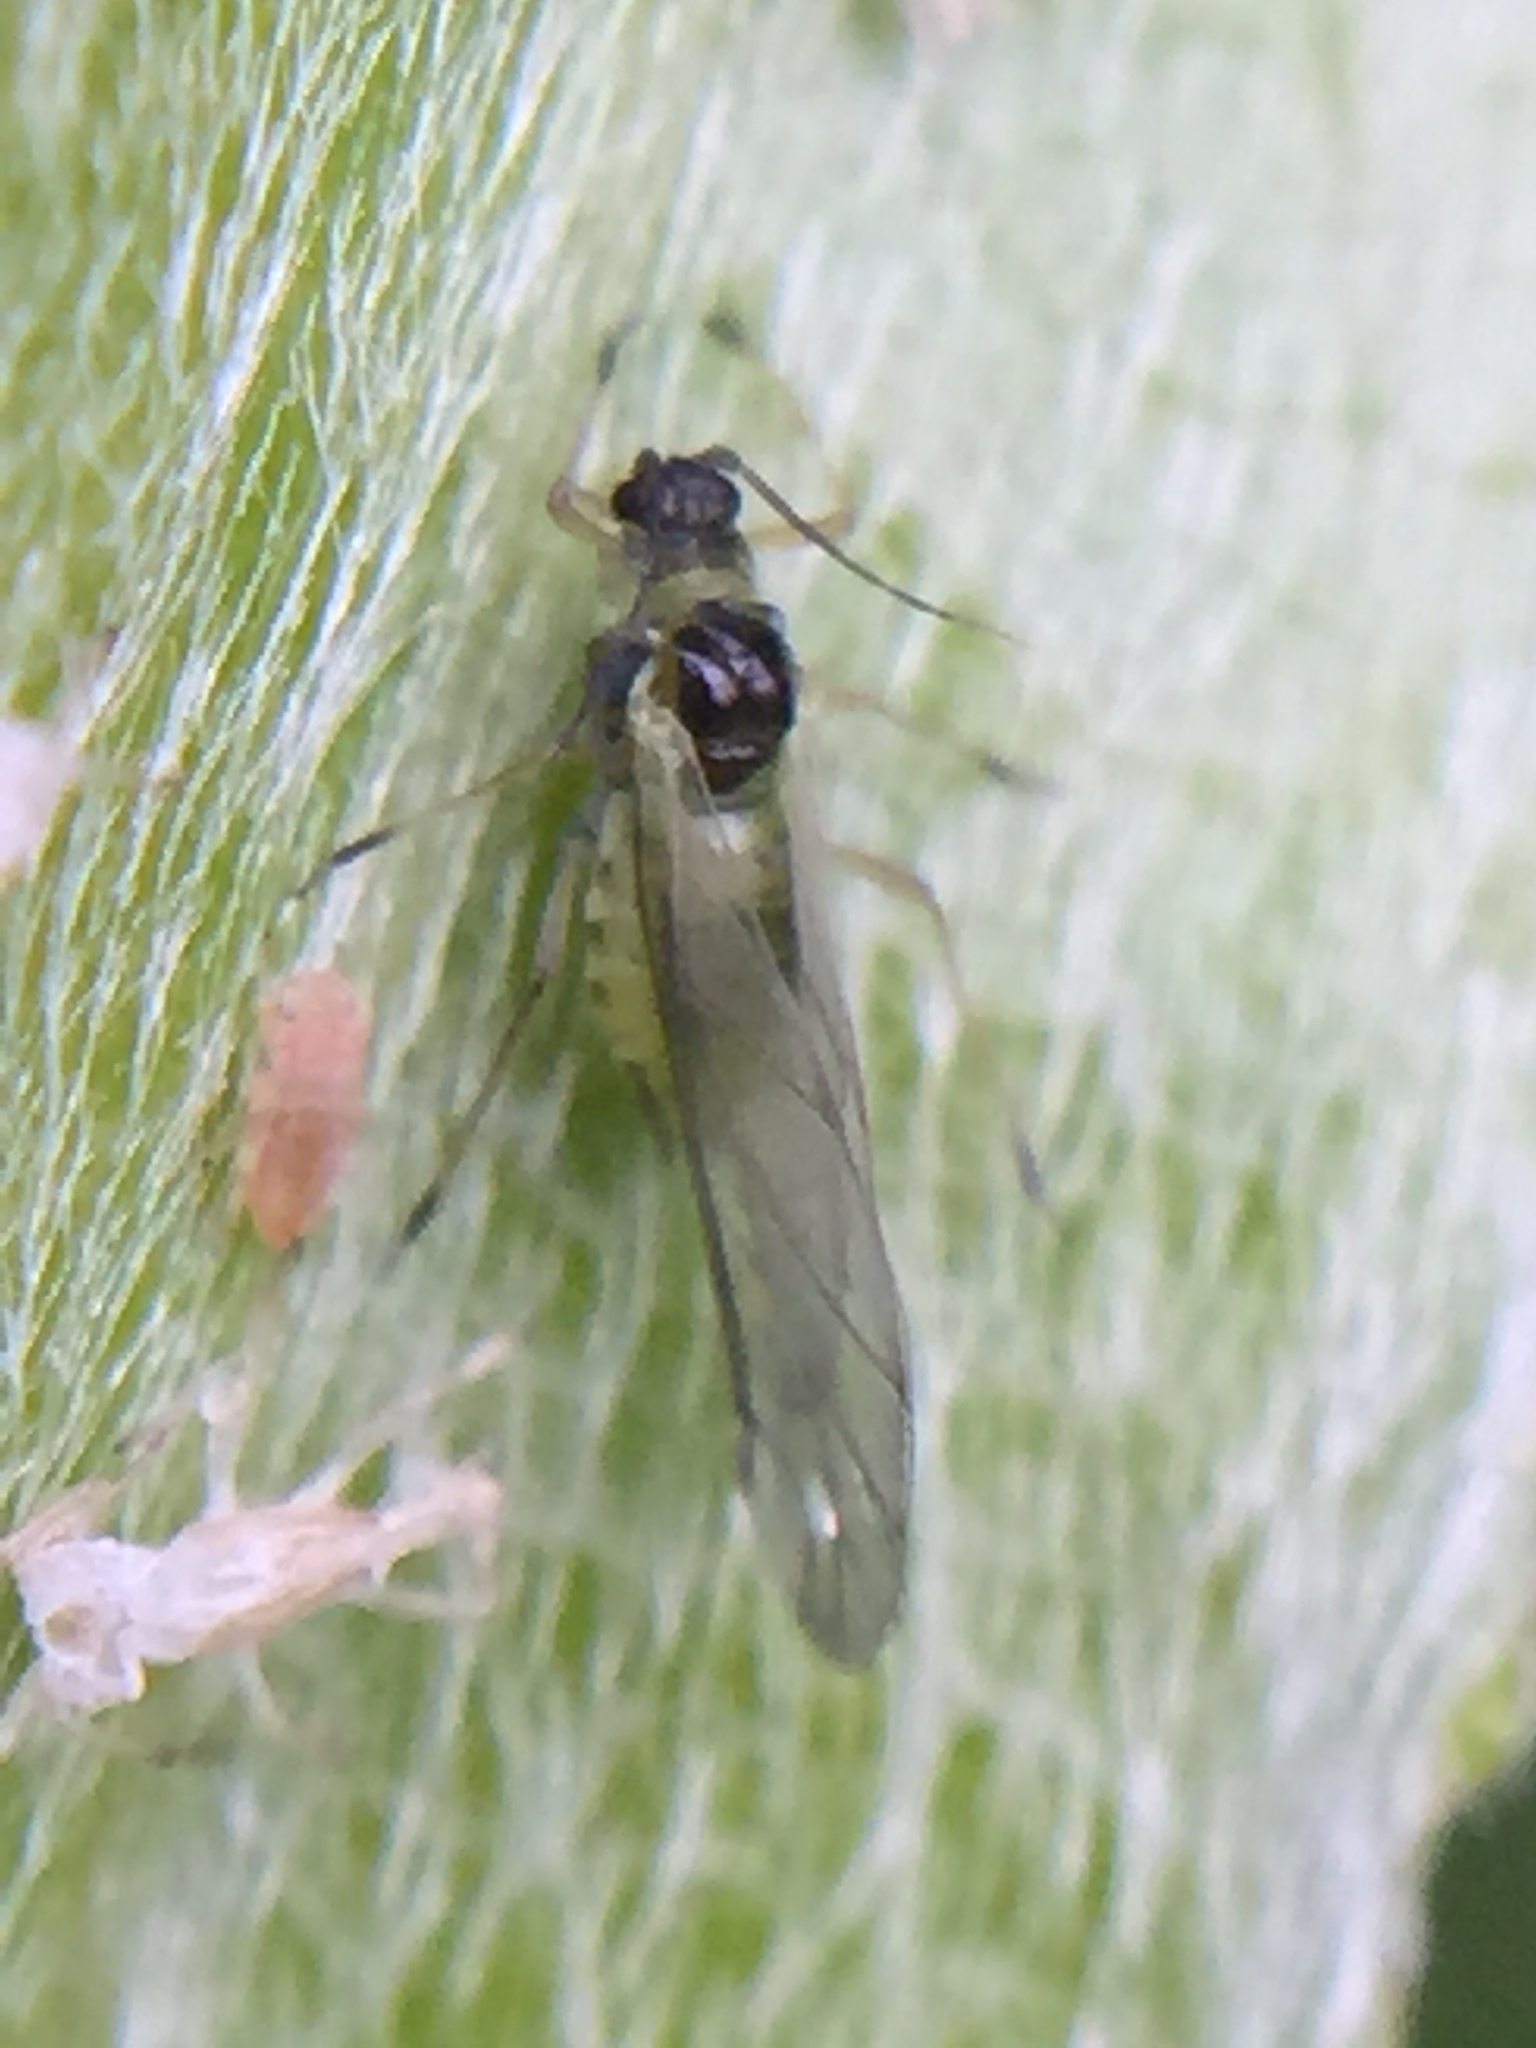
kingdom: Animalia
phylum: Arthropoda
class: Insecta
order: Hemiptera
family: Aphididae
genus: Cavariella
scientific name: Cavariella aegopodii
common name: Carrot-willow aphid
